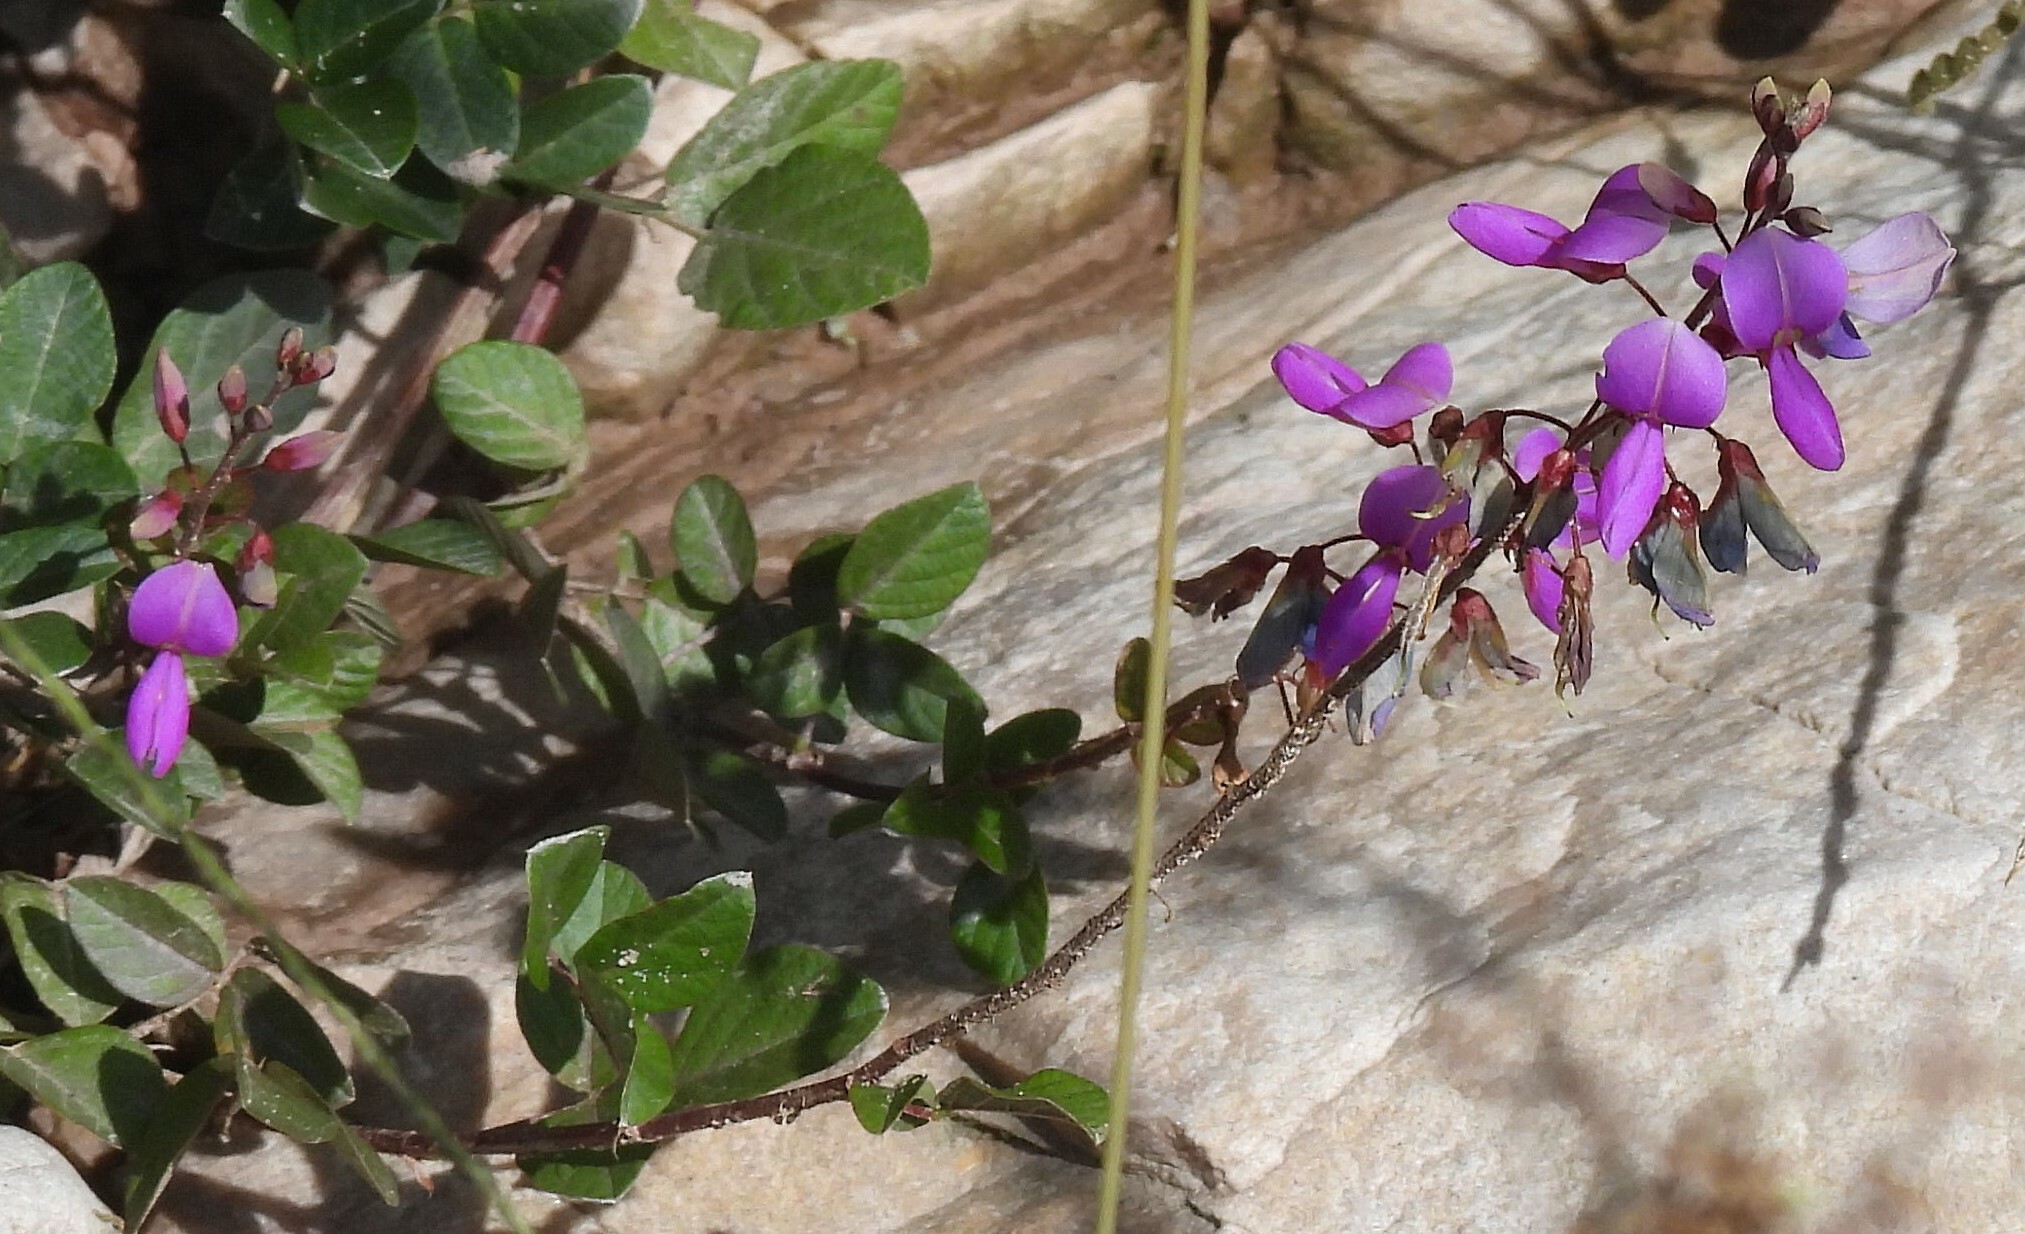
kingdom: Plantae
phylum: Tracheophyta
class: Magnoliopsida
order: Fabales
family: Fabaceae
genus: Desmodium
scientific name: Desmodium uncinatum
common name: Silverleaf desmodium
